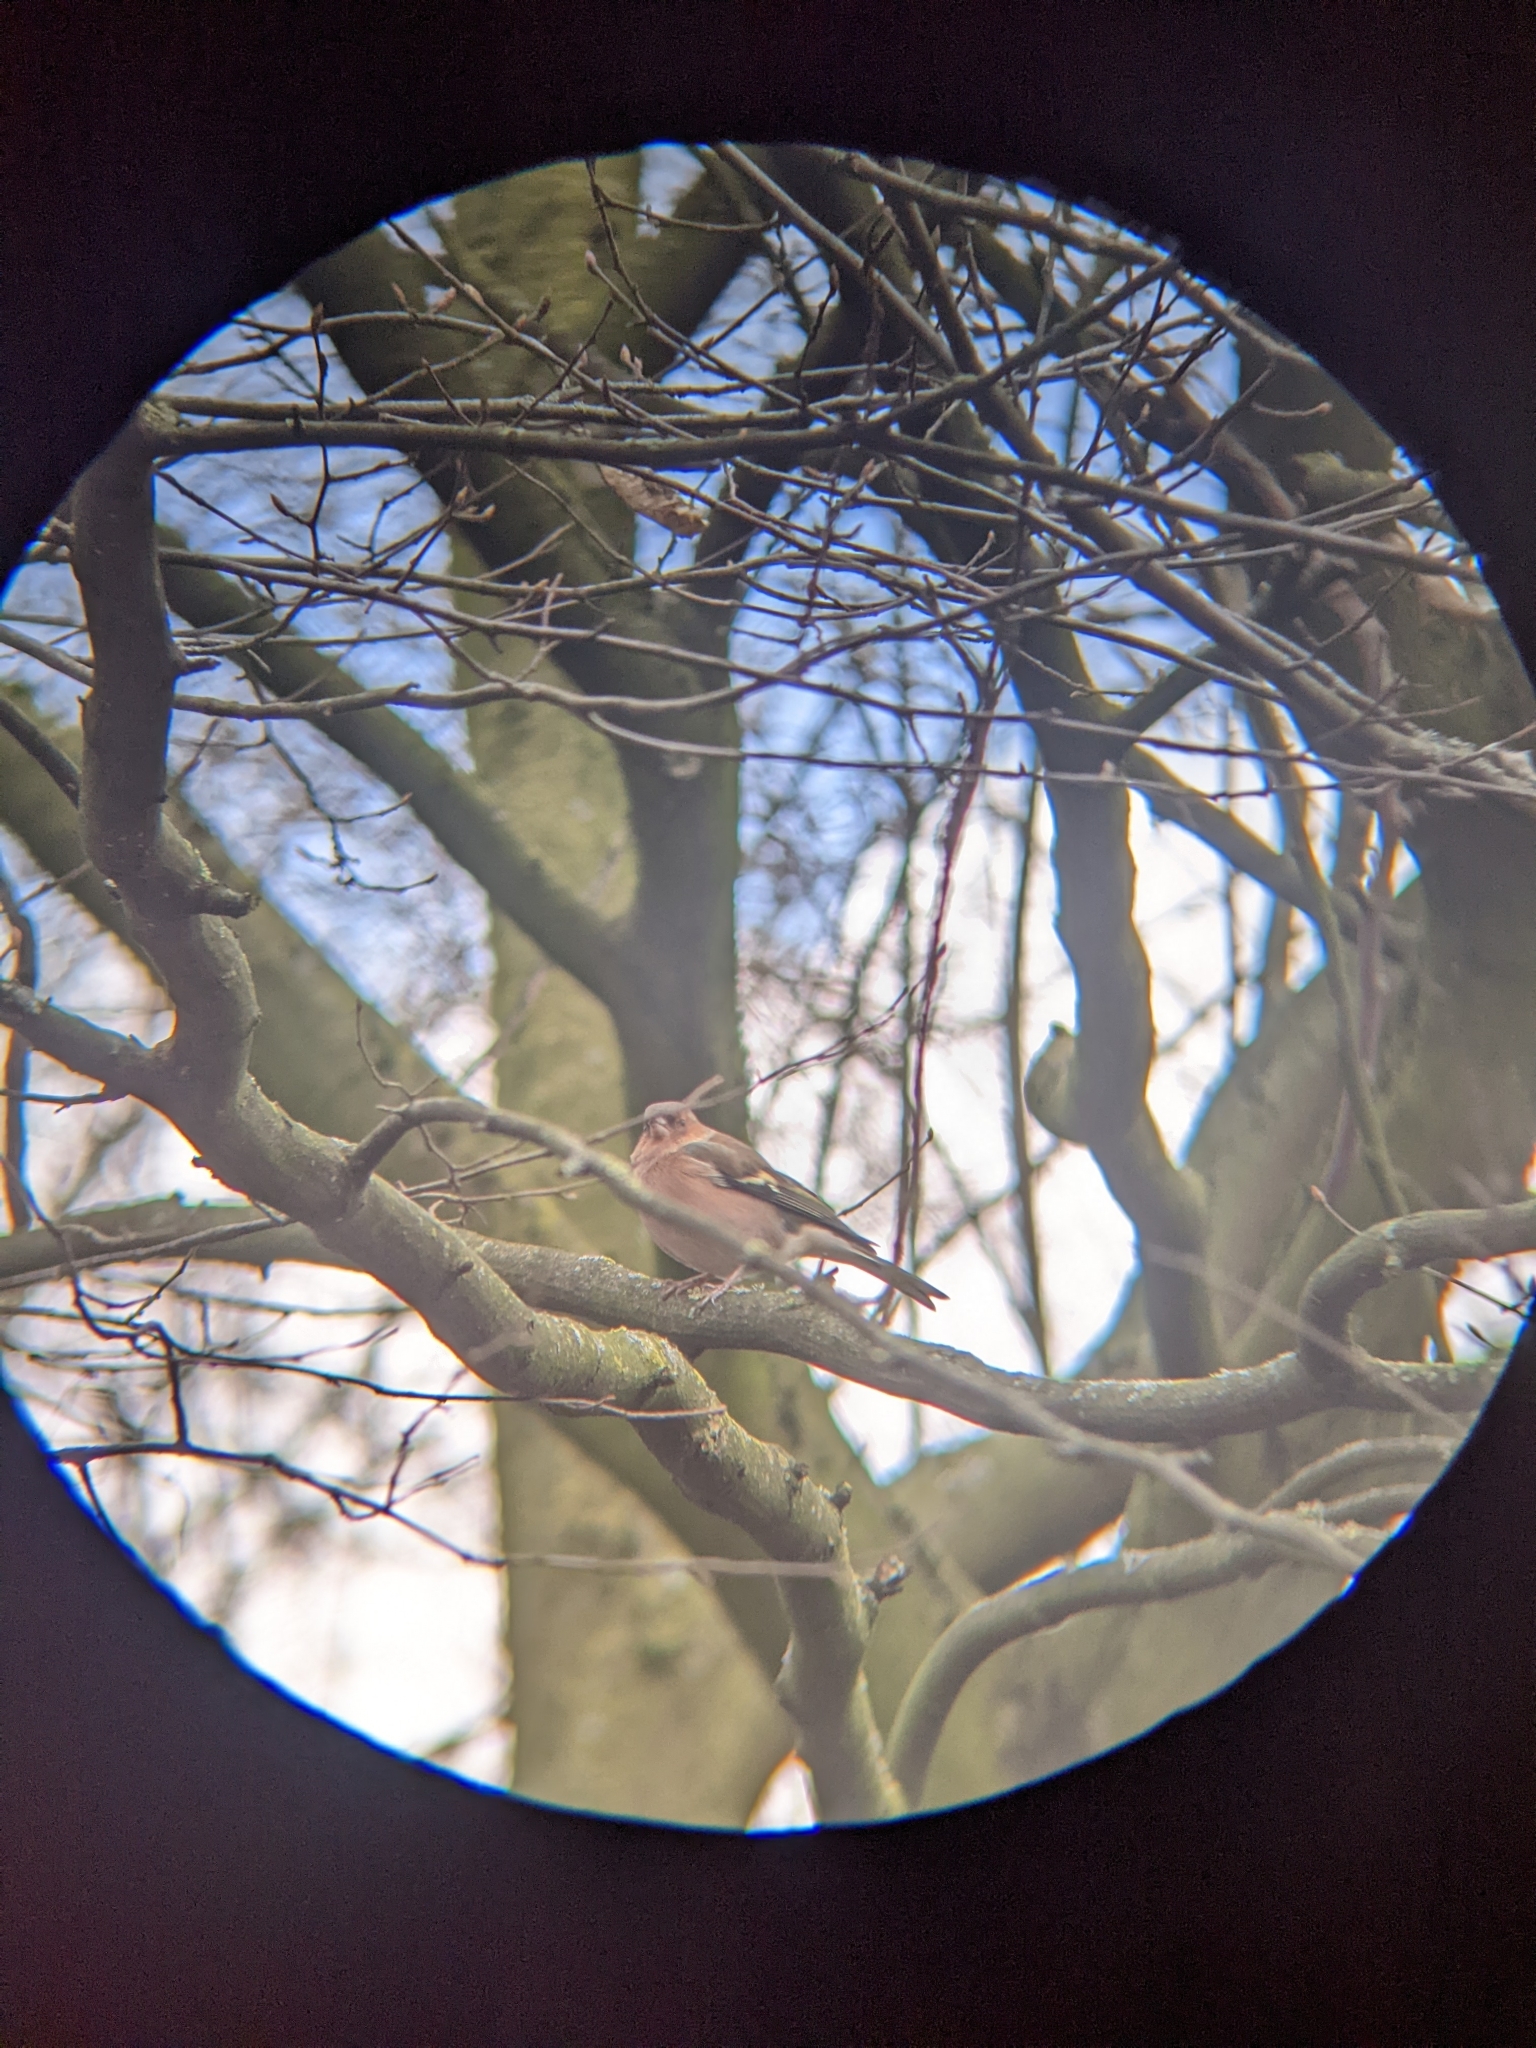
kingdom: Animalia
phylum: Chordata
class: Aves
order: Passeriformes
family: Fringillidae
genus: Fringilla
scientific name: Fringilla coelebs
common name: Common chaffinch
